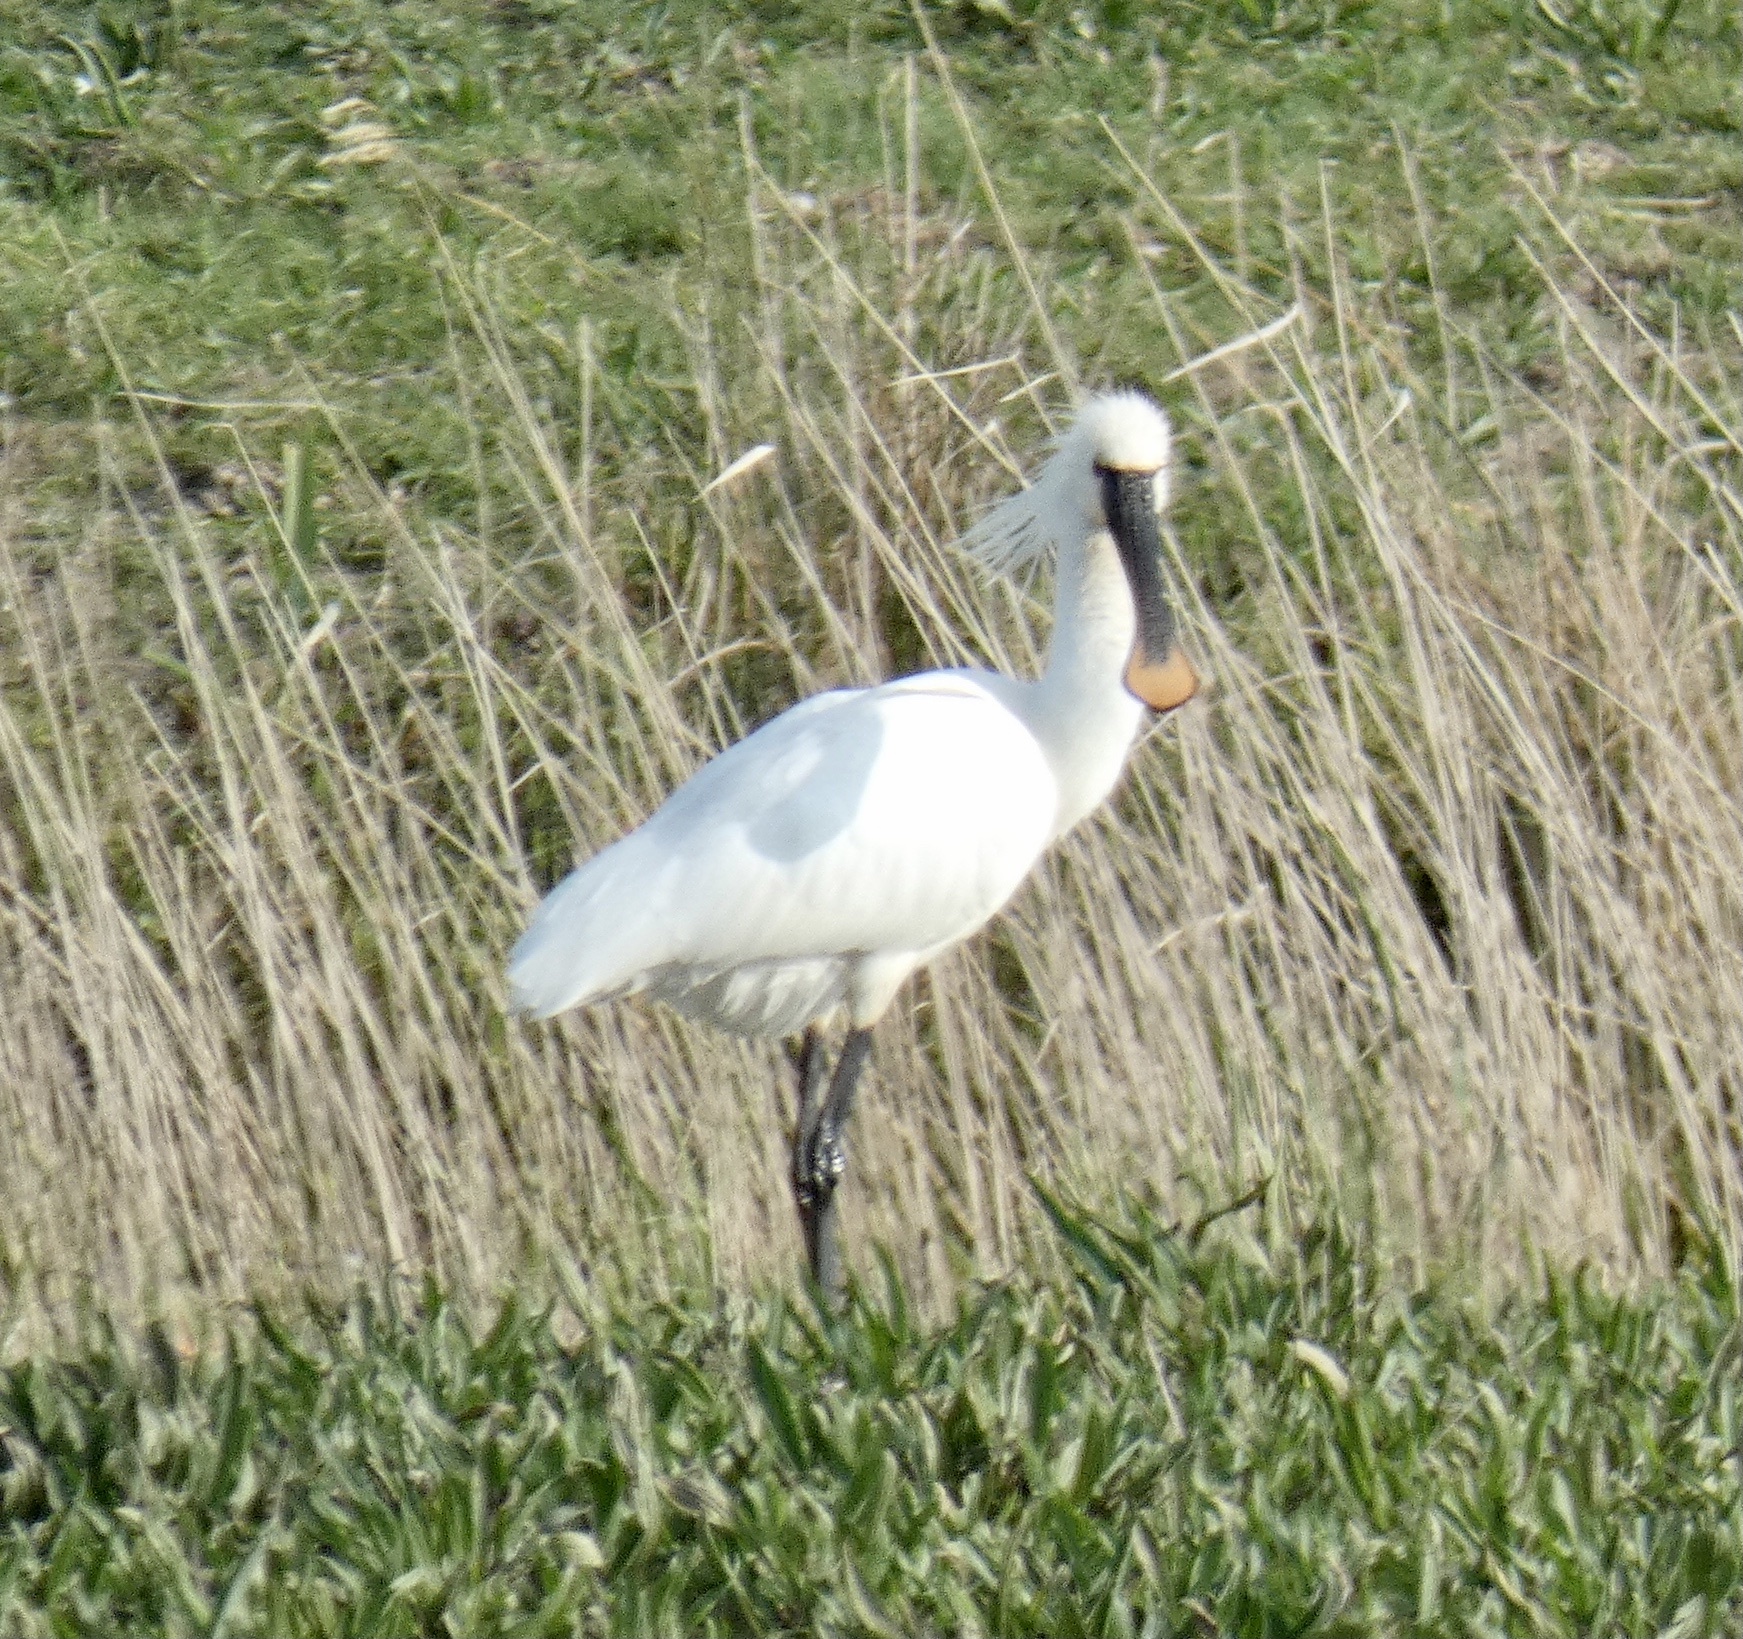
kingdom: Animalia
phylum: Chordata
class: Aves
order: Pelecaniformes
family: Threskiornithidae
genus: Platalea
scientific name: Platalea leucorodia
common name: Eurasian spoonbill
